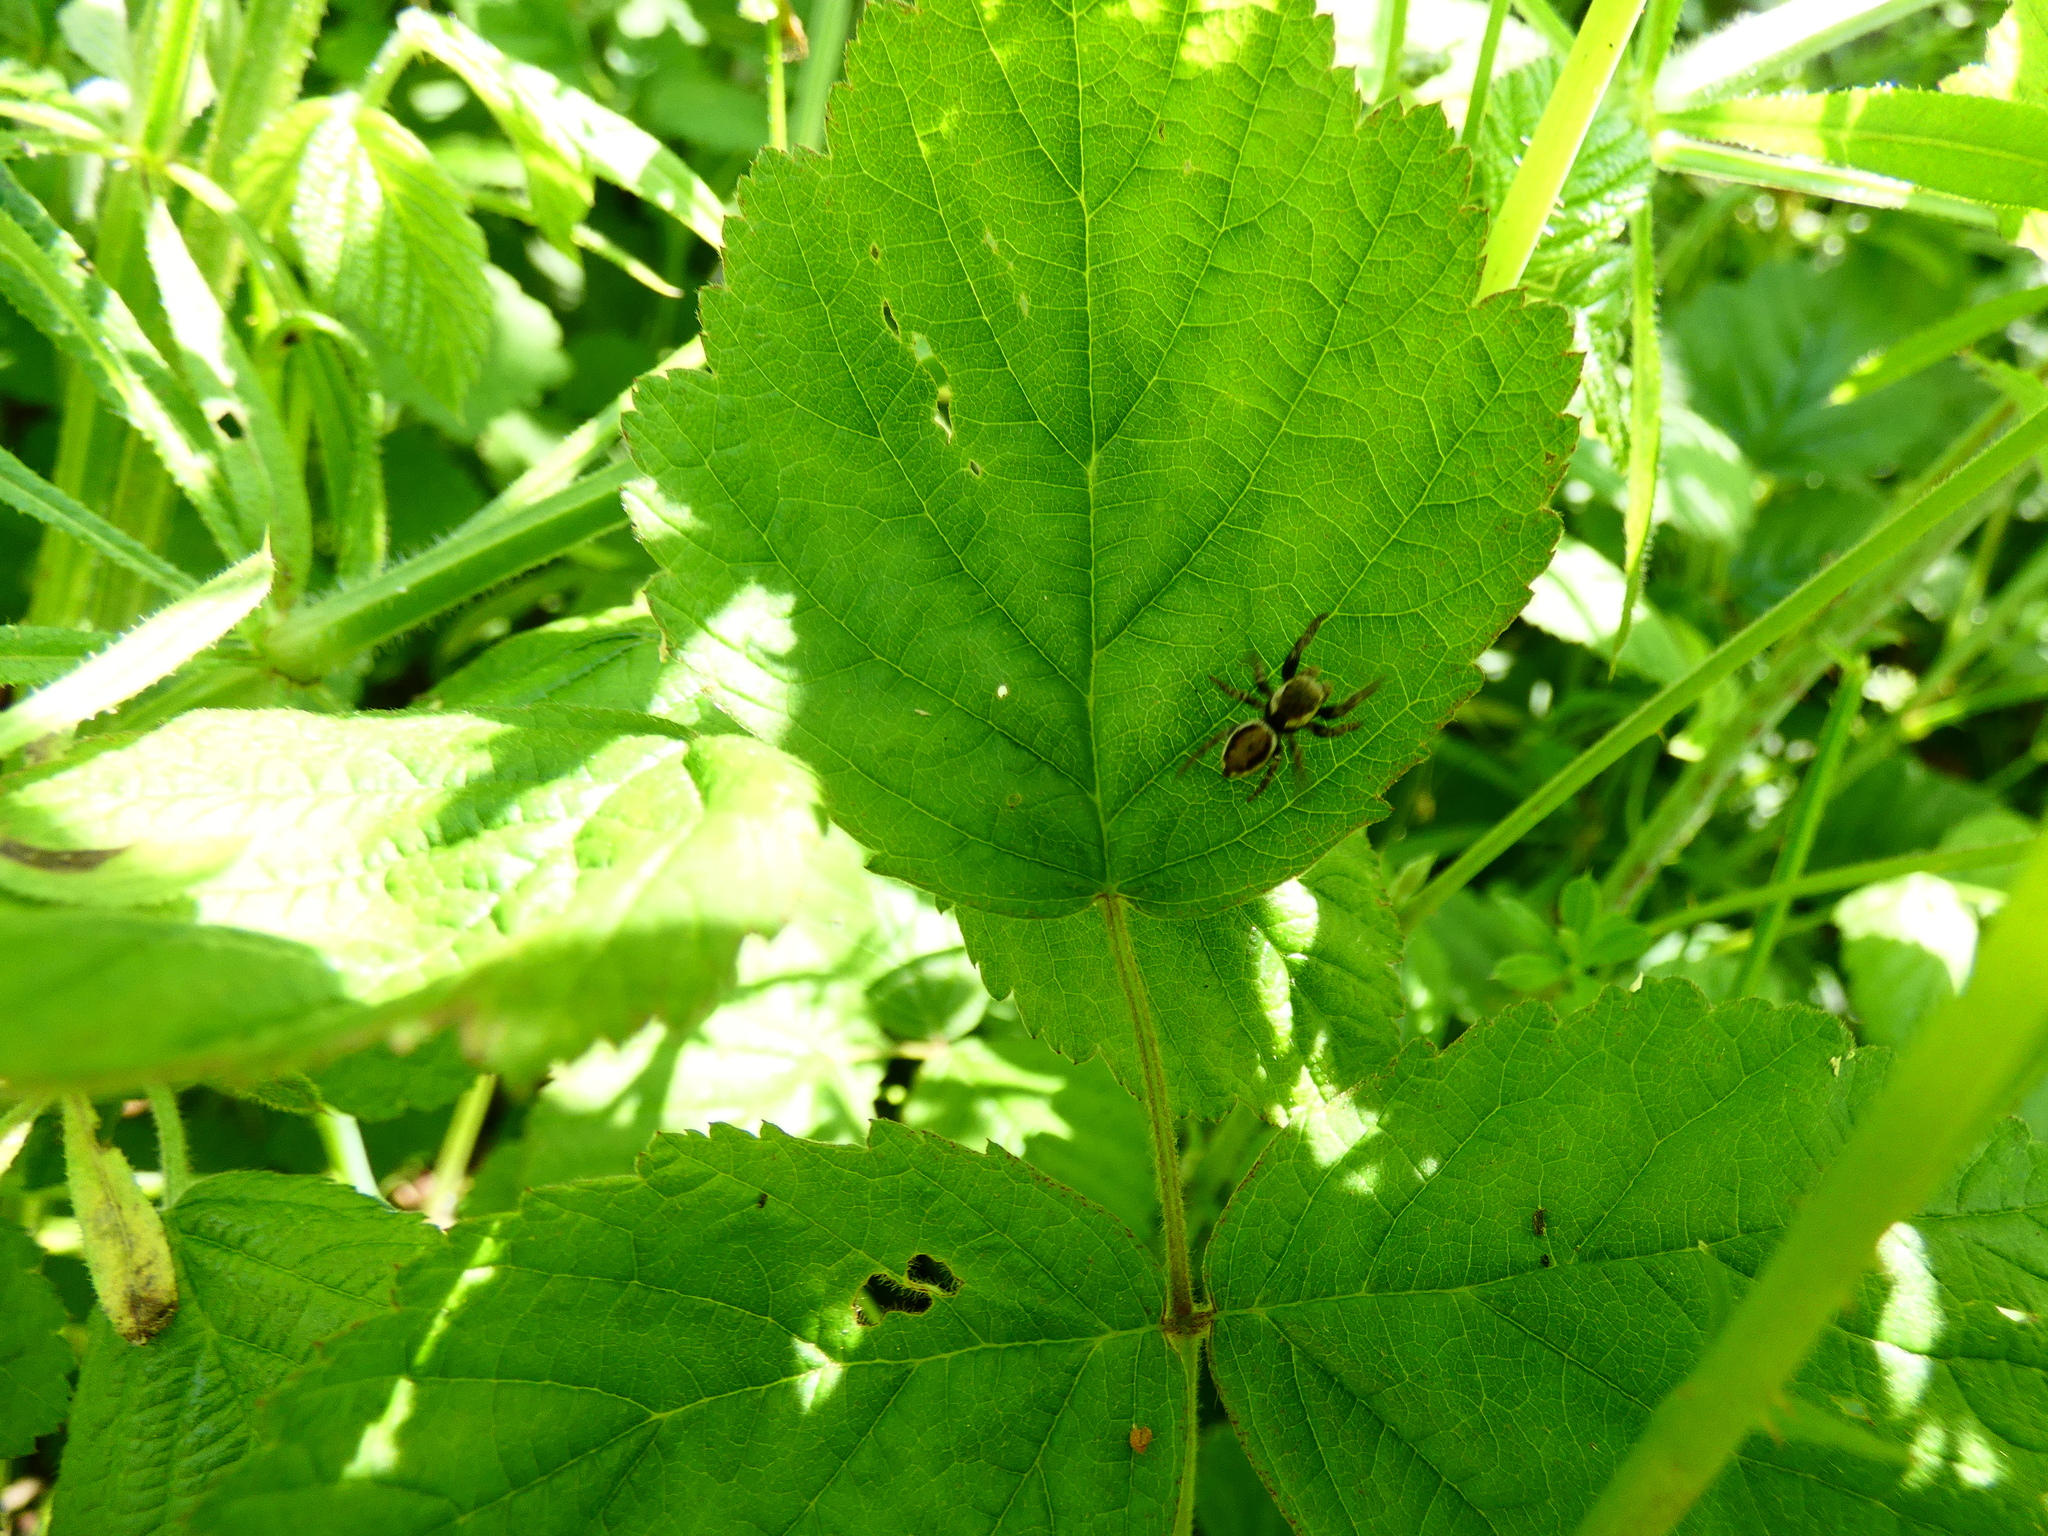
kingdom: Animalia
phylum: Arthropoda
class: Arachnida
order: Araneae
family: Salticidae
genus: Evarcha
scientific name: Evarcha falcata
